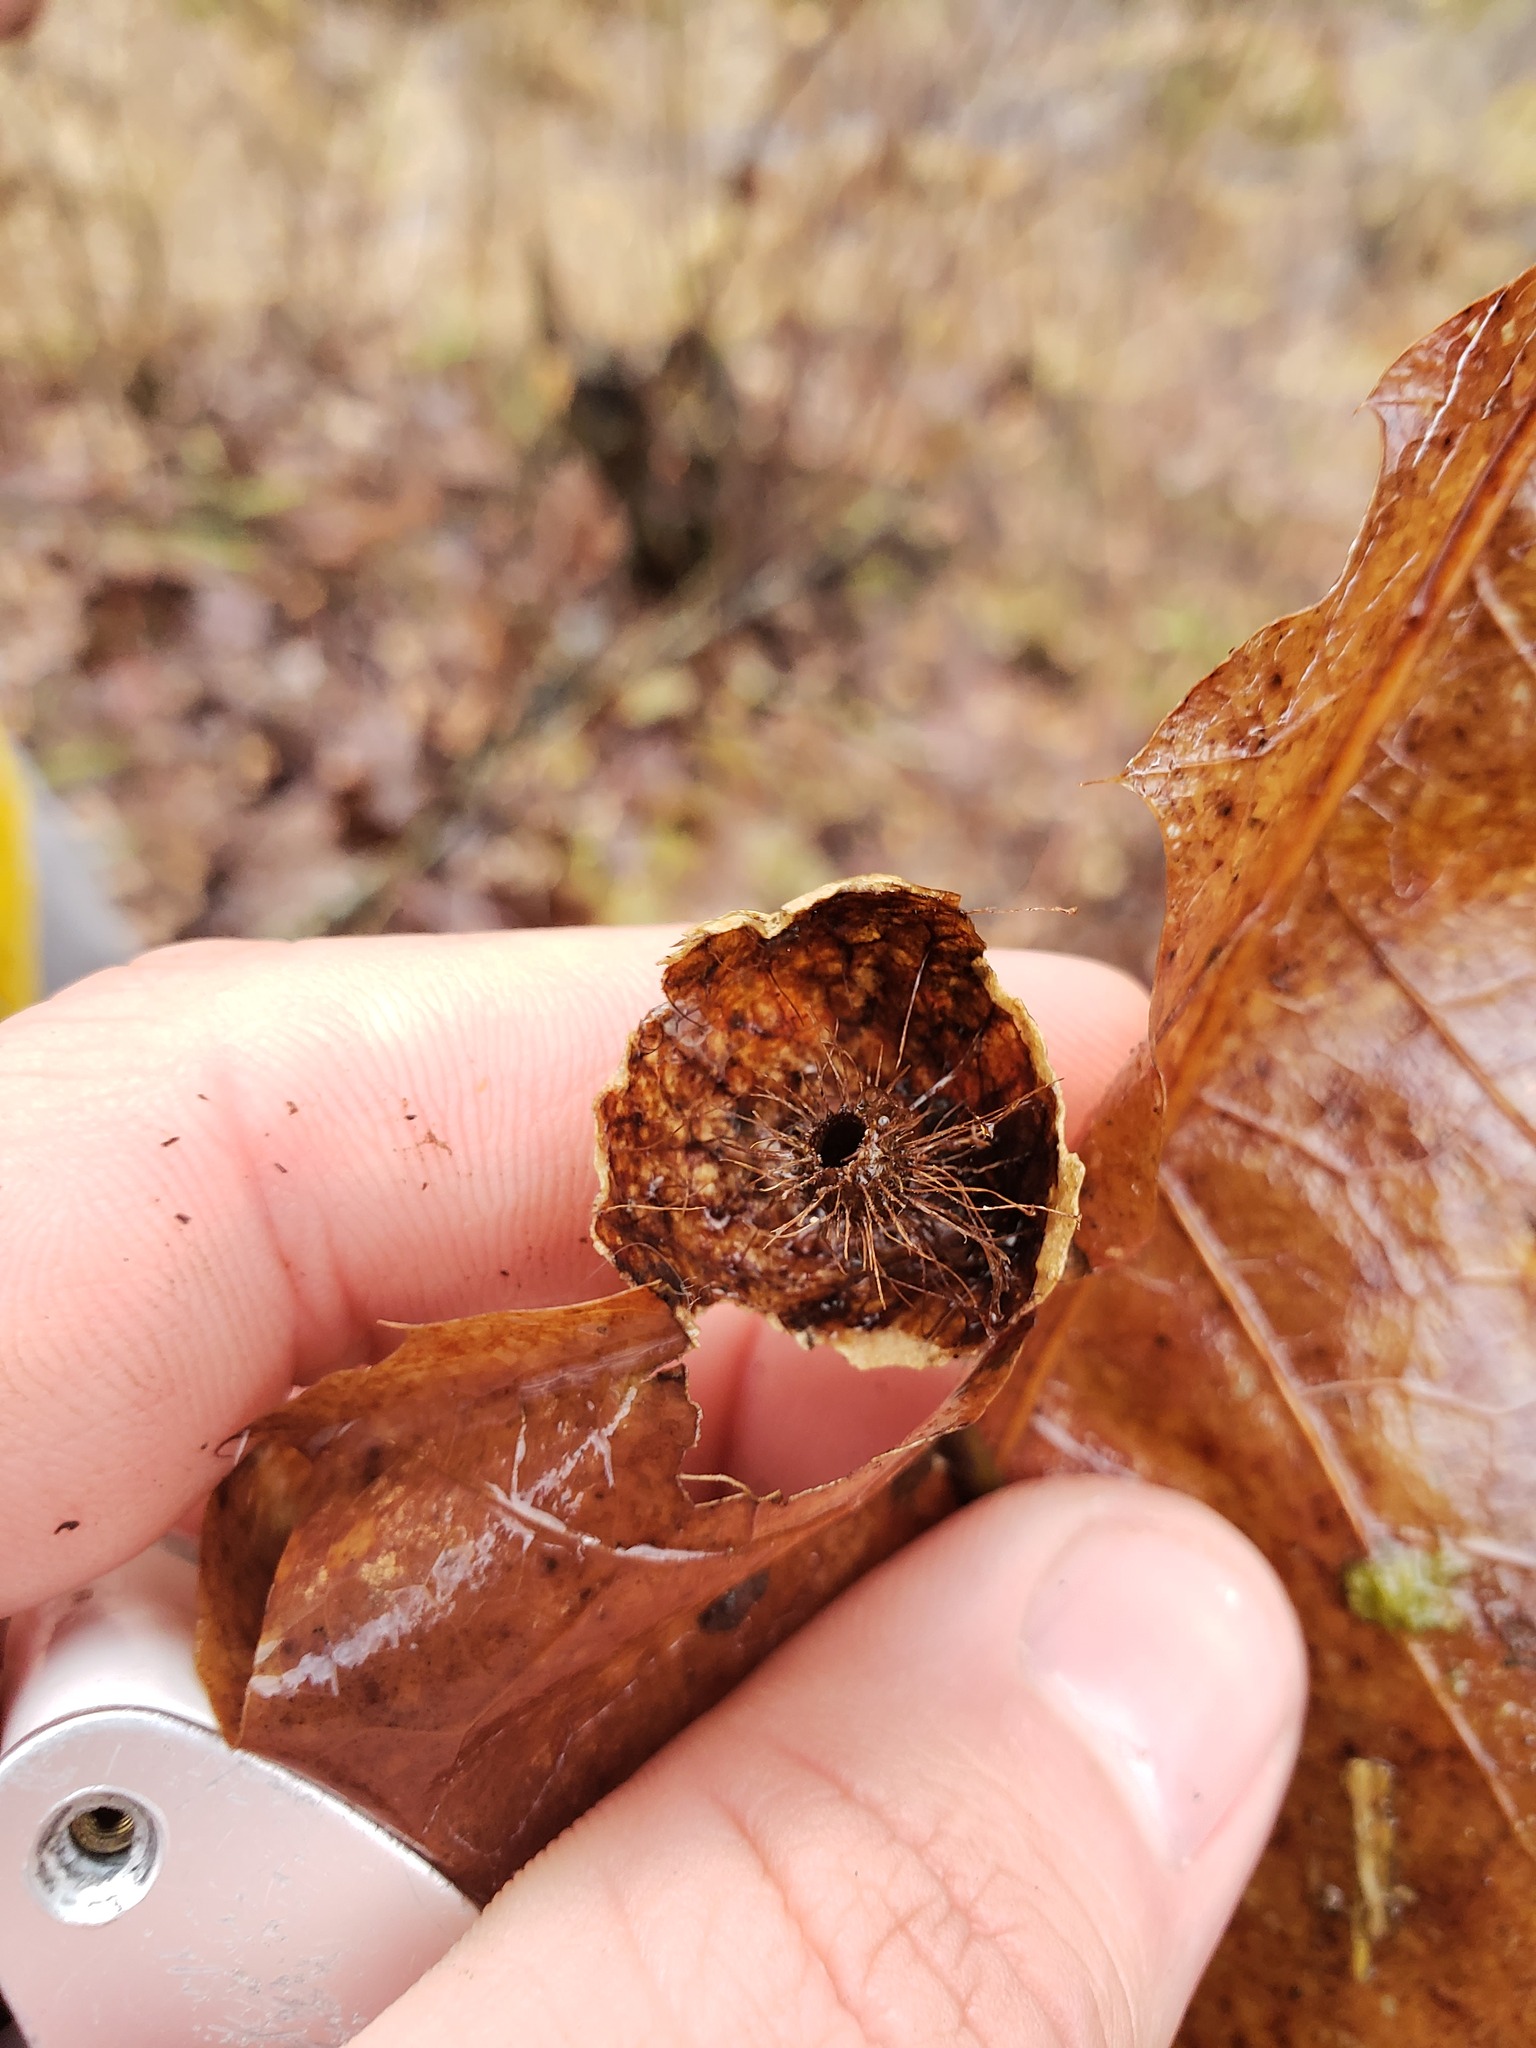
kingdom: Animalia
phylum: Arthropoda
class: Insecta
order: Hymenoptera
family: Cynipidae
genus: Amphibolips
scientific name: Amphibolips
